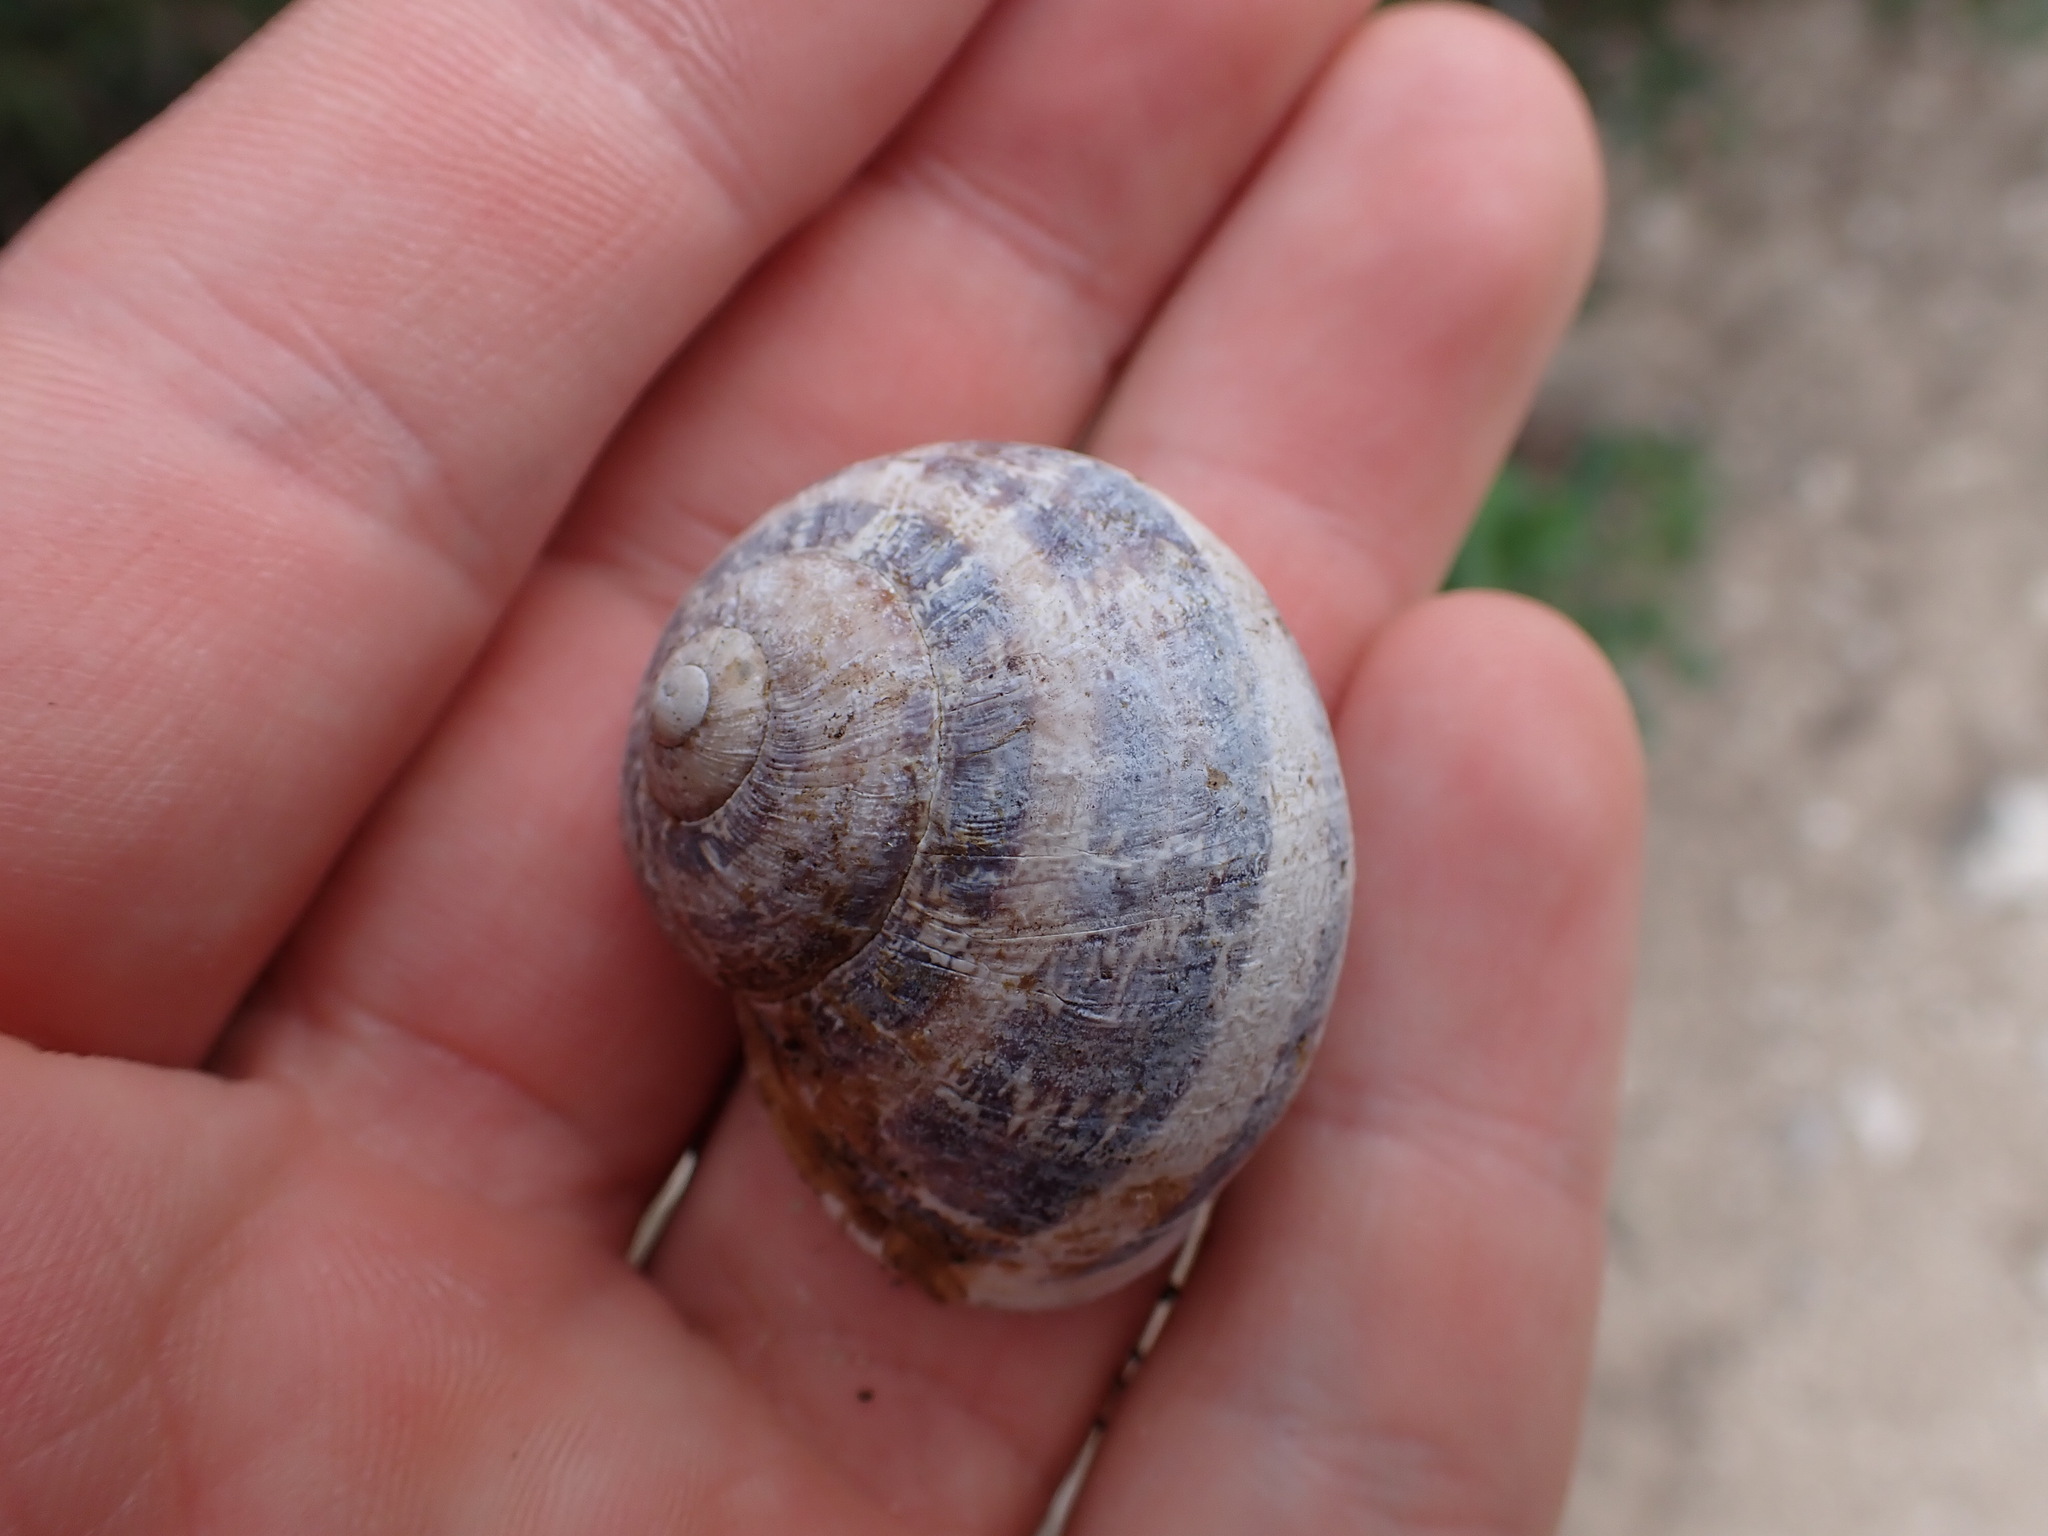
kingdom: Animalia
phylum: Mollusca
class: Gastropoda
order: Stylommatophora
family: Helicidae
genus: Cornu
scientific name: Cornu aspersum
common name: Brown garden snail
